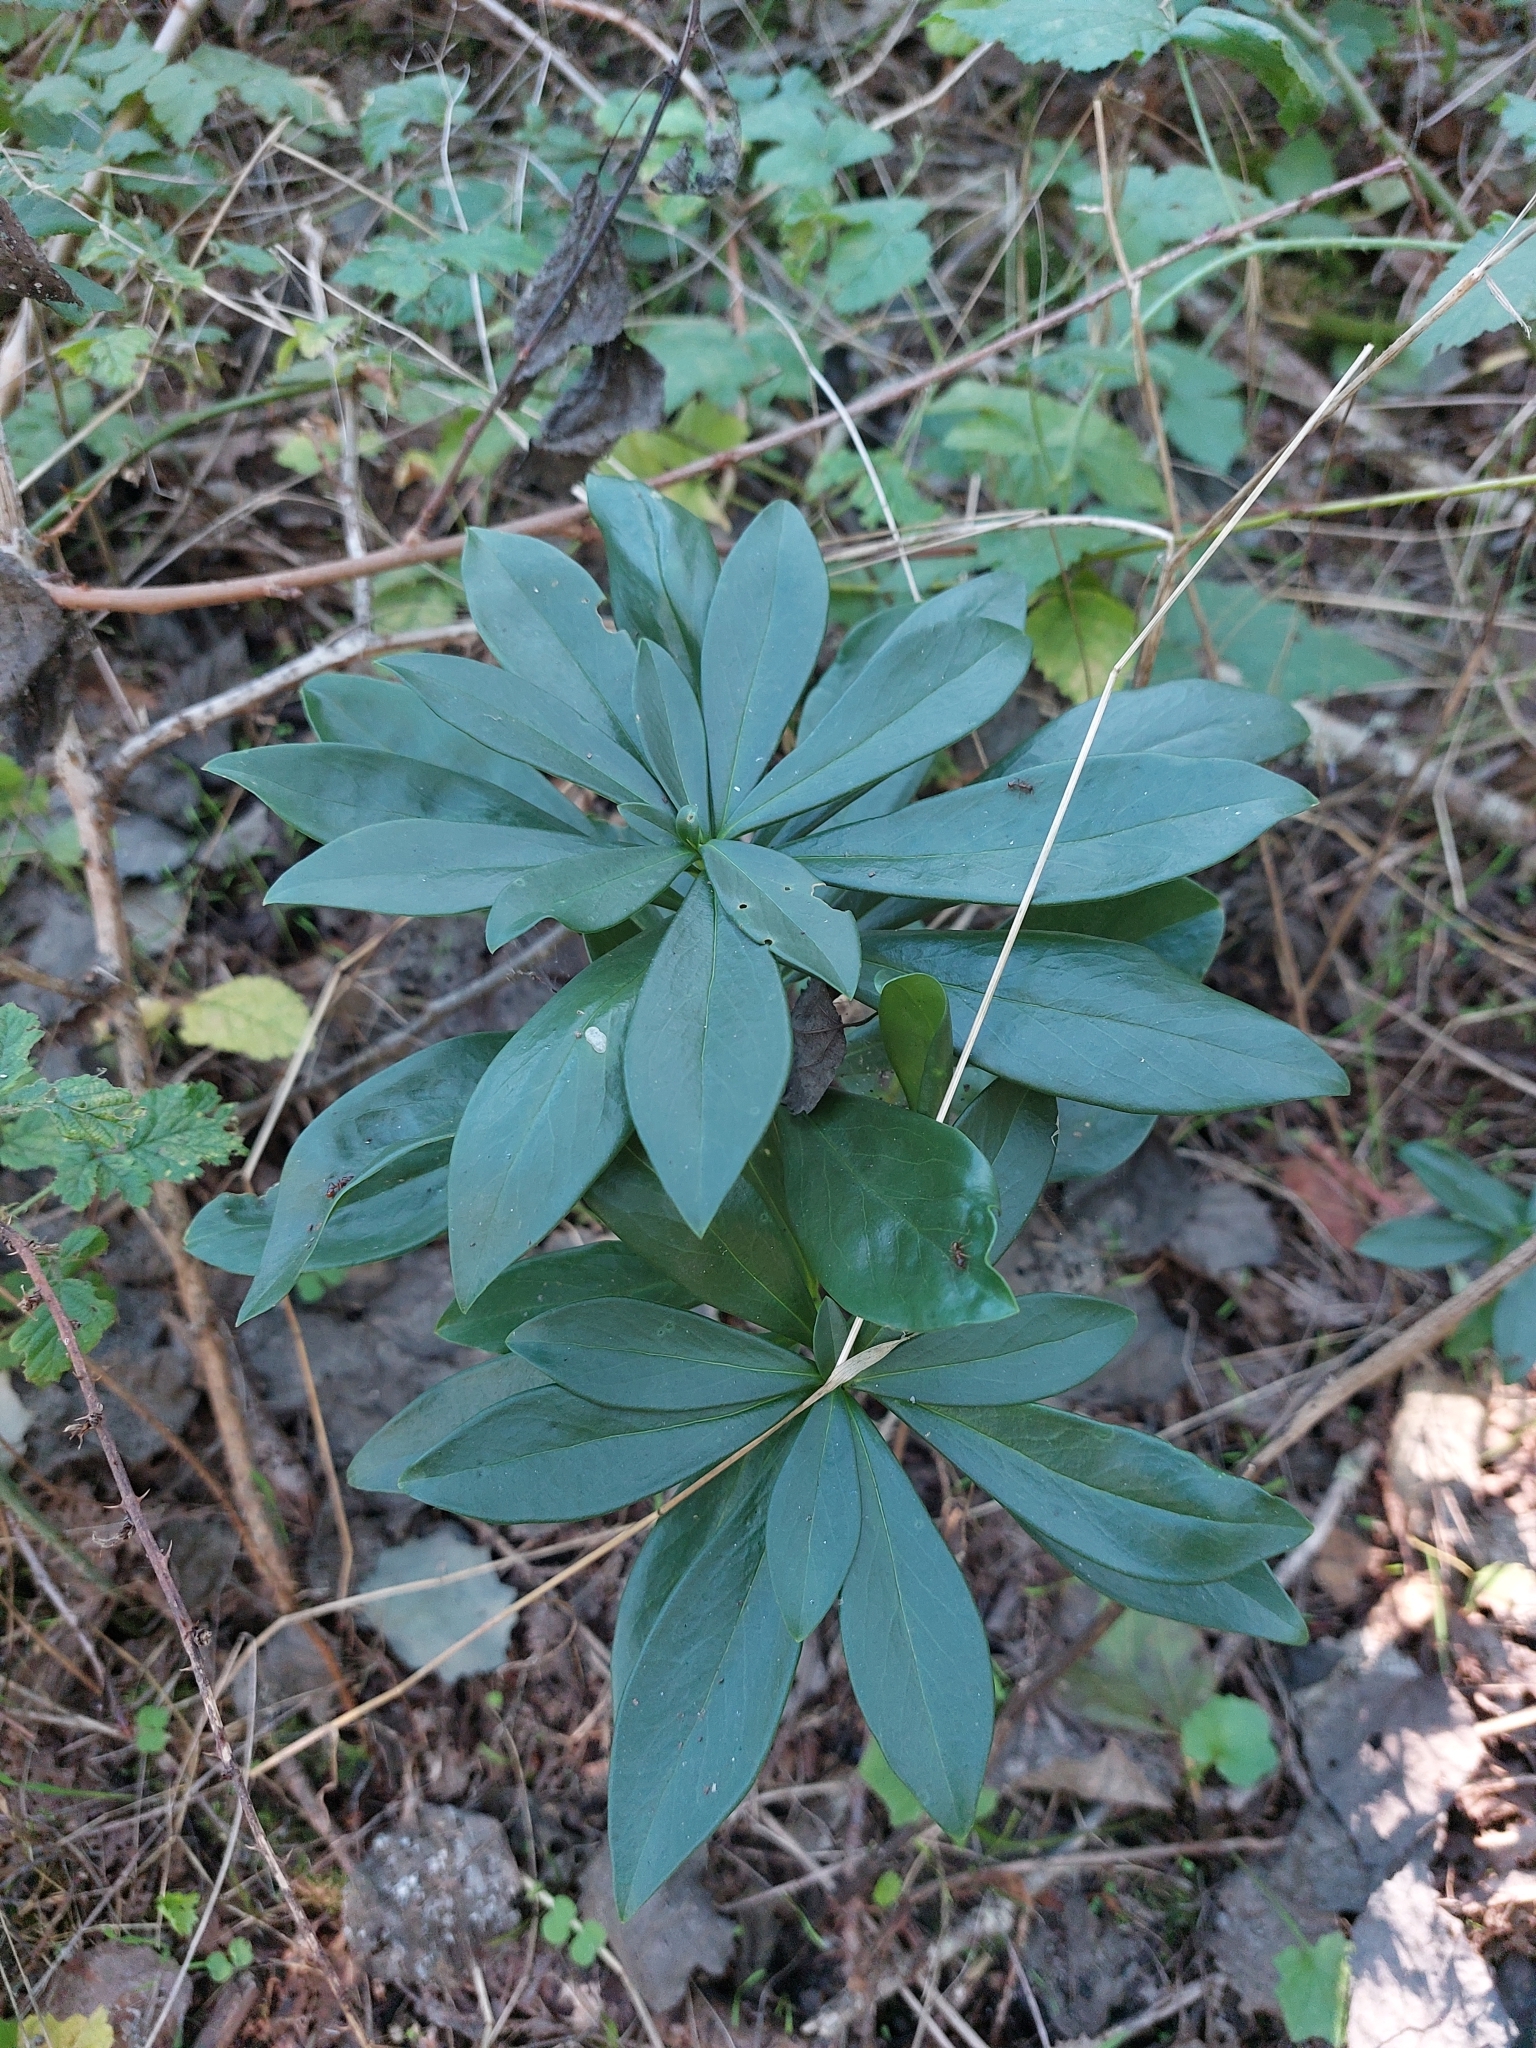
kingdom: Plantae
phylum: Tracheophyta
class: Magnoliopsida
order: Malvales
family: Thymelaeaceae
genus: Daphne
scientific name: Daphne laureola
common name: Spurge-laurel
